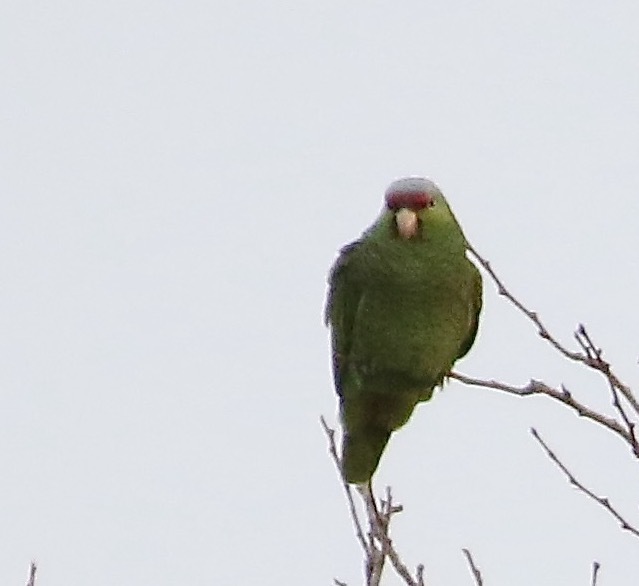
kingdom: Animalia
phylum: Chordata
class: Aves
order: Psittaciformes
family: Psittacidae
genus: Amazona
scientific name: Amazona finschi
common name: Lilac-crowned amazon
